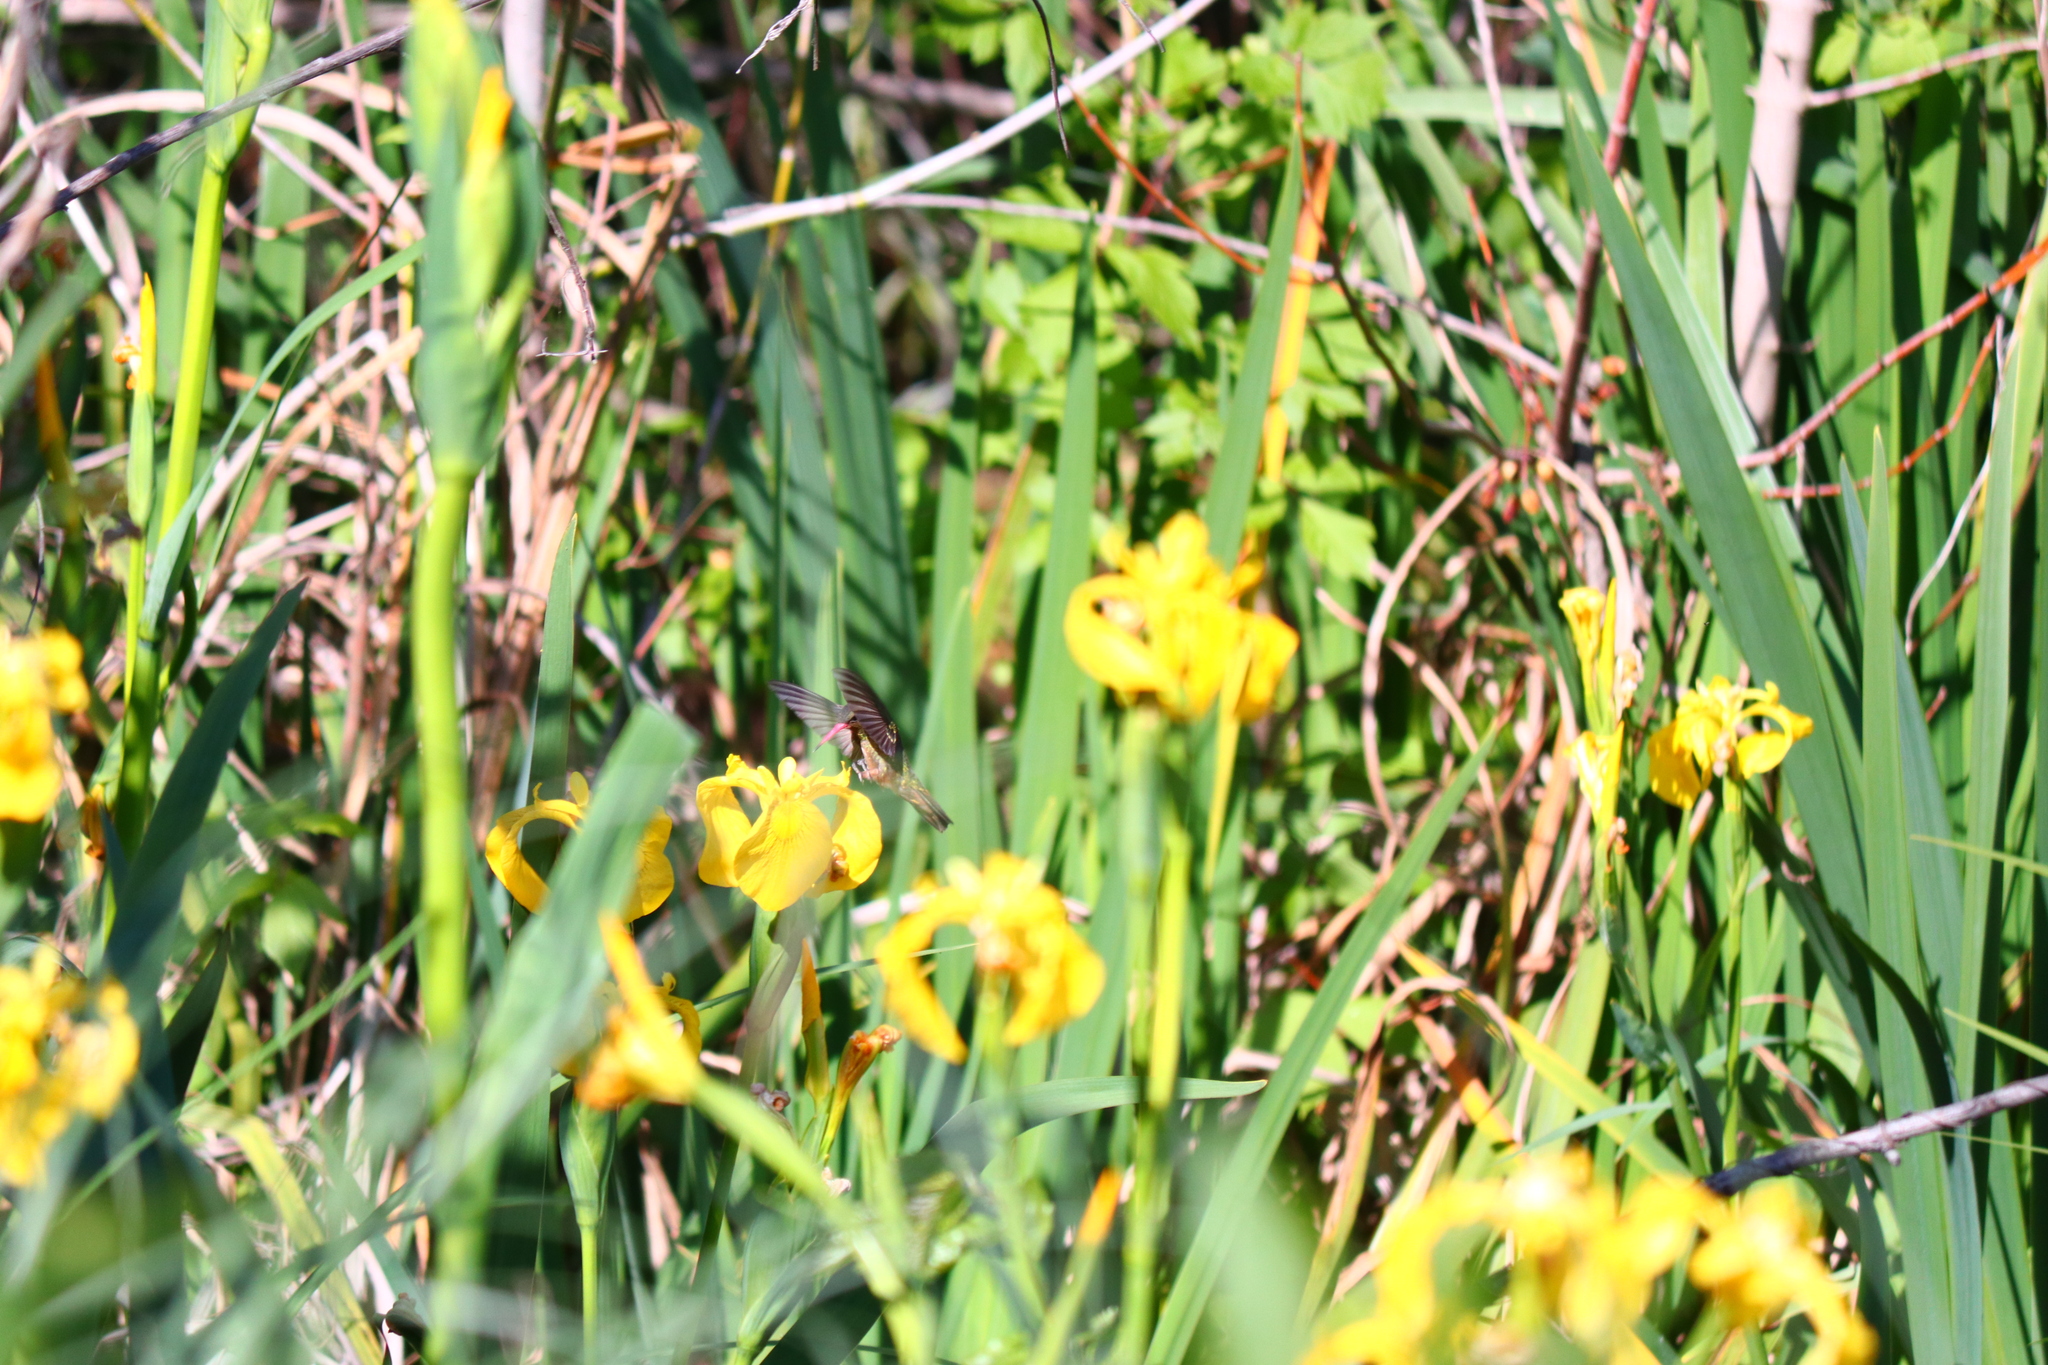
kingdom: Animalia
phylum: Chordata
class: Aves
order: Apodiformes
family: Trochilidae
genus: Hylocharis
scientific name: Hylocharis chrysura
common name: Gilded sapphire
